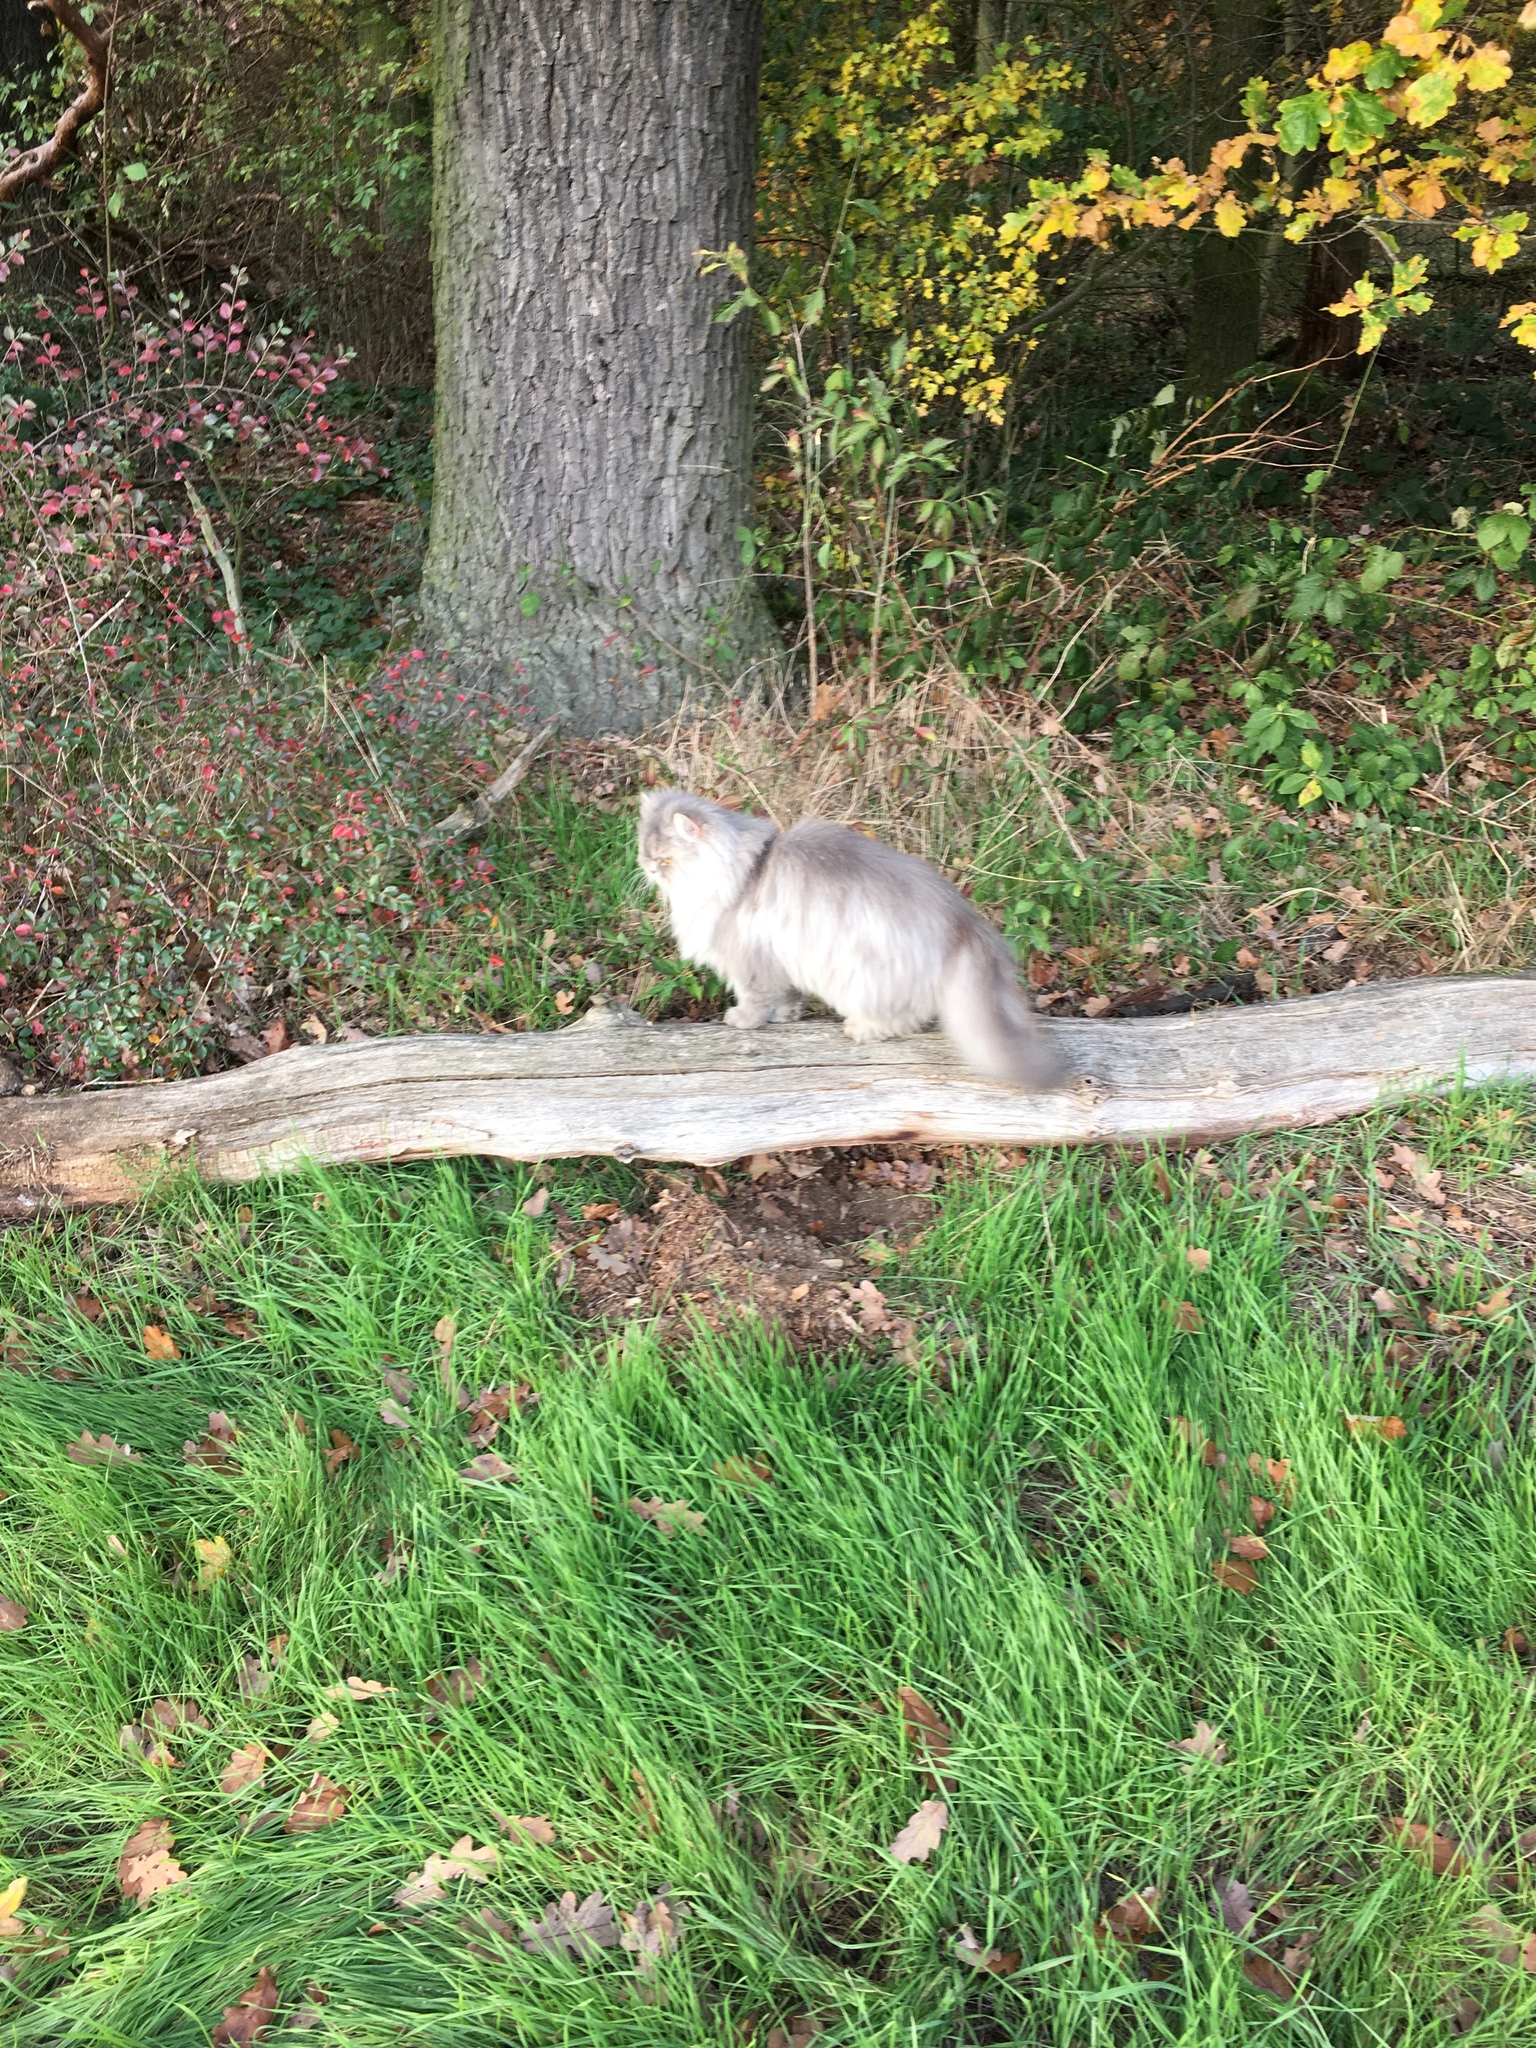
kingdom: Animalia
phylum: Chordata
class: Mammalia
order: Carnivora
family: Felidae
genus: Felis
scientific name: Felis catus
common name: Domestic cat
